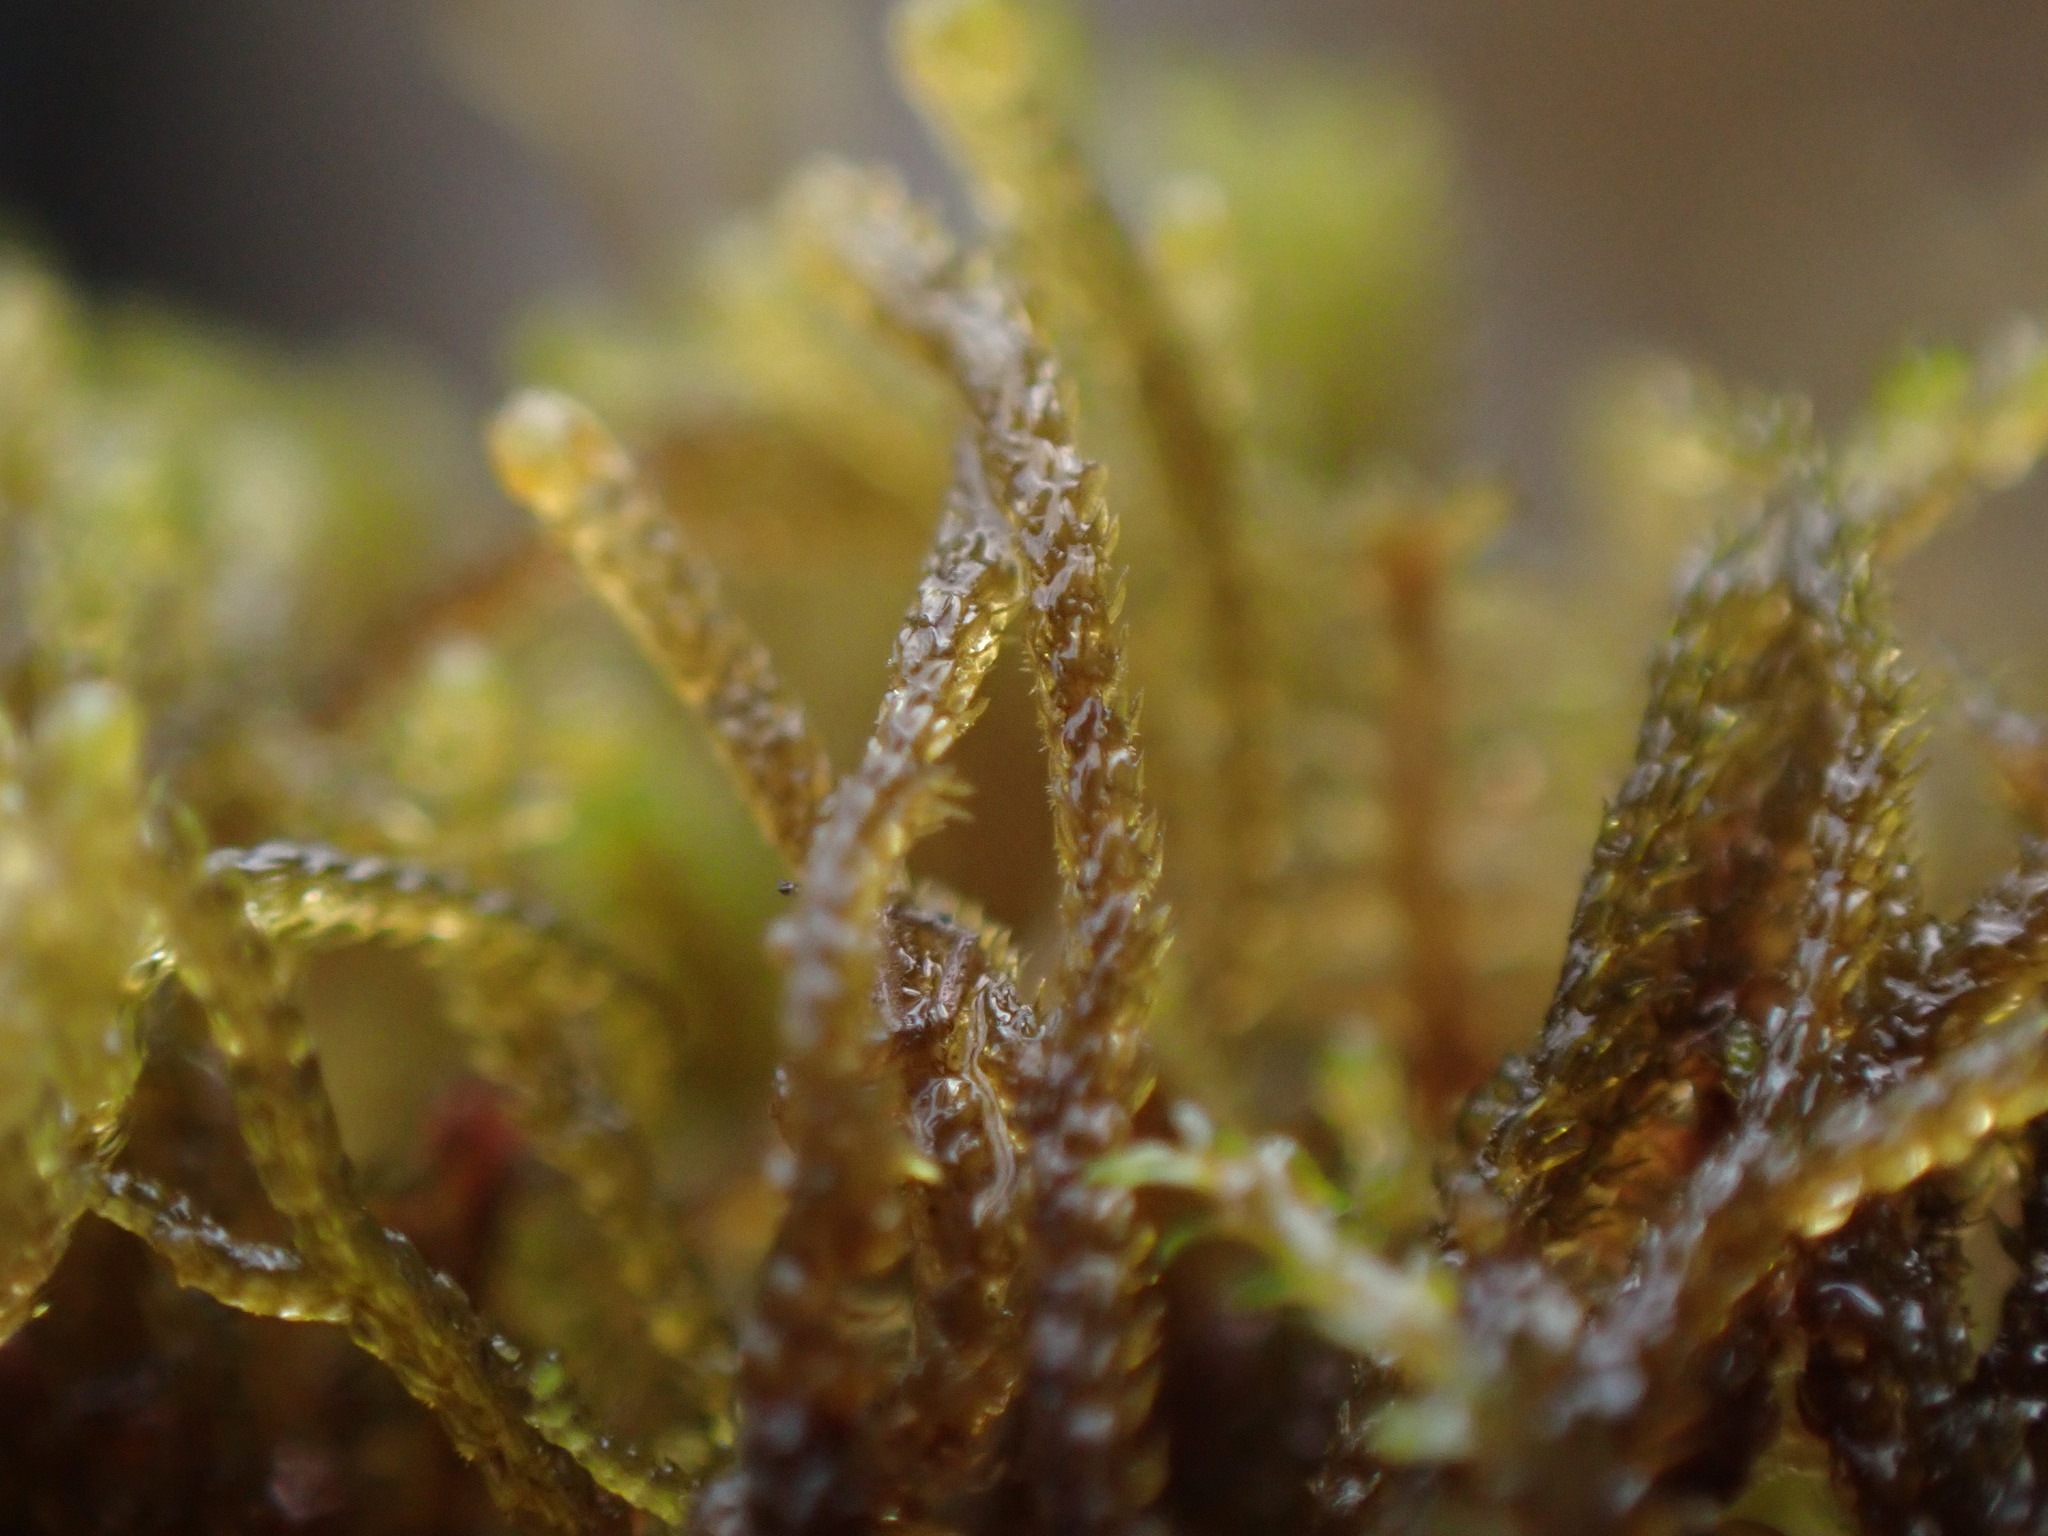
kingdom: Plantae
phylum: Marchantiophyta
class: Jungermanniopsida
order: Jungermanniales
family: Anastrophyllaceae
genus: Tetralophozia
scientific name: Tetralophozia setiformis
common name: Monster pawwort
